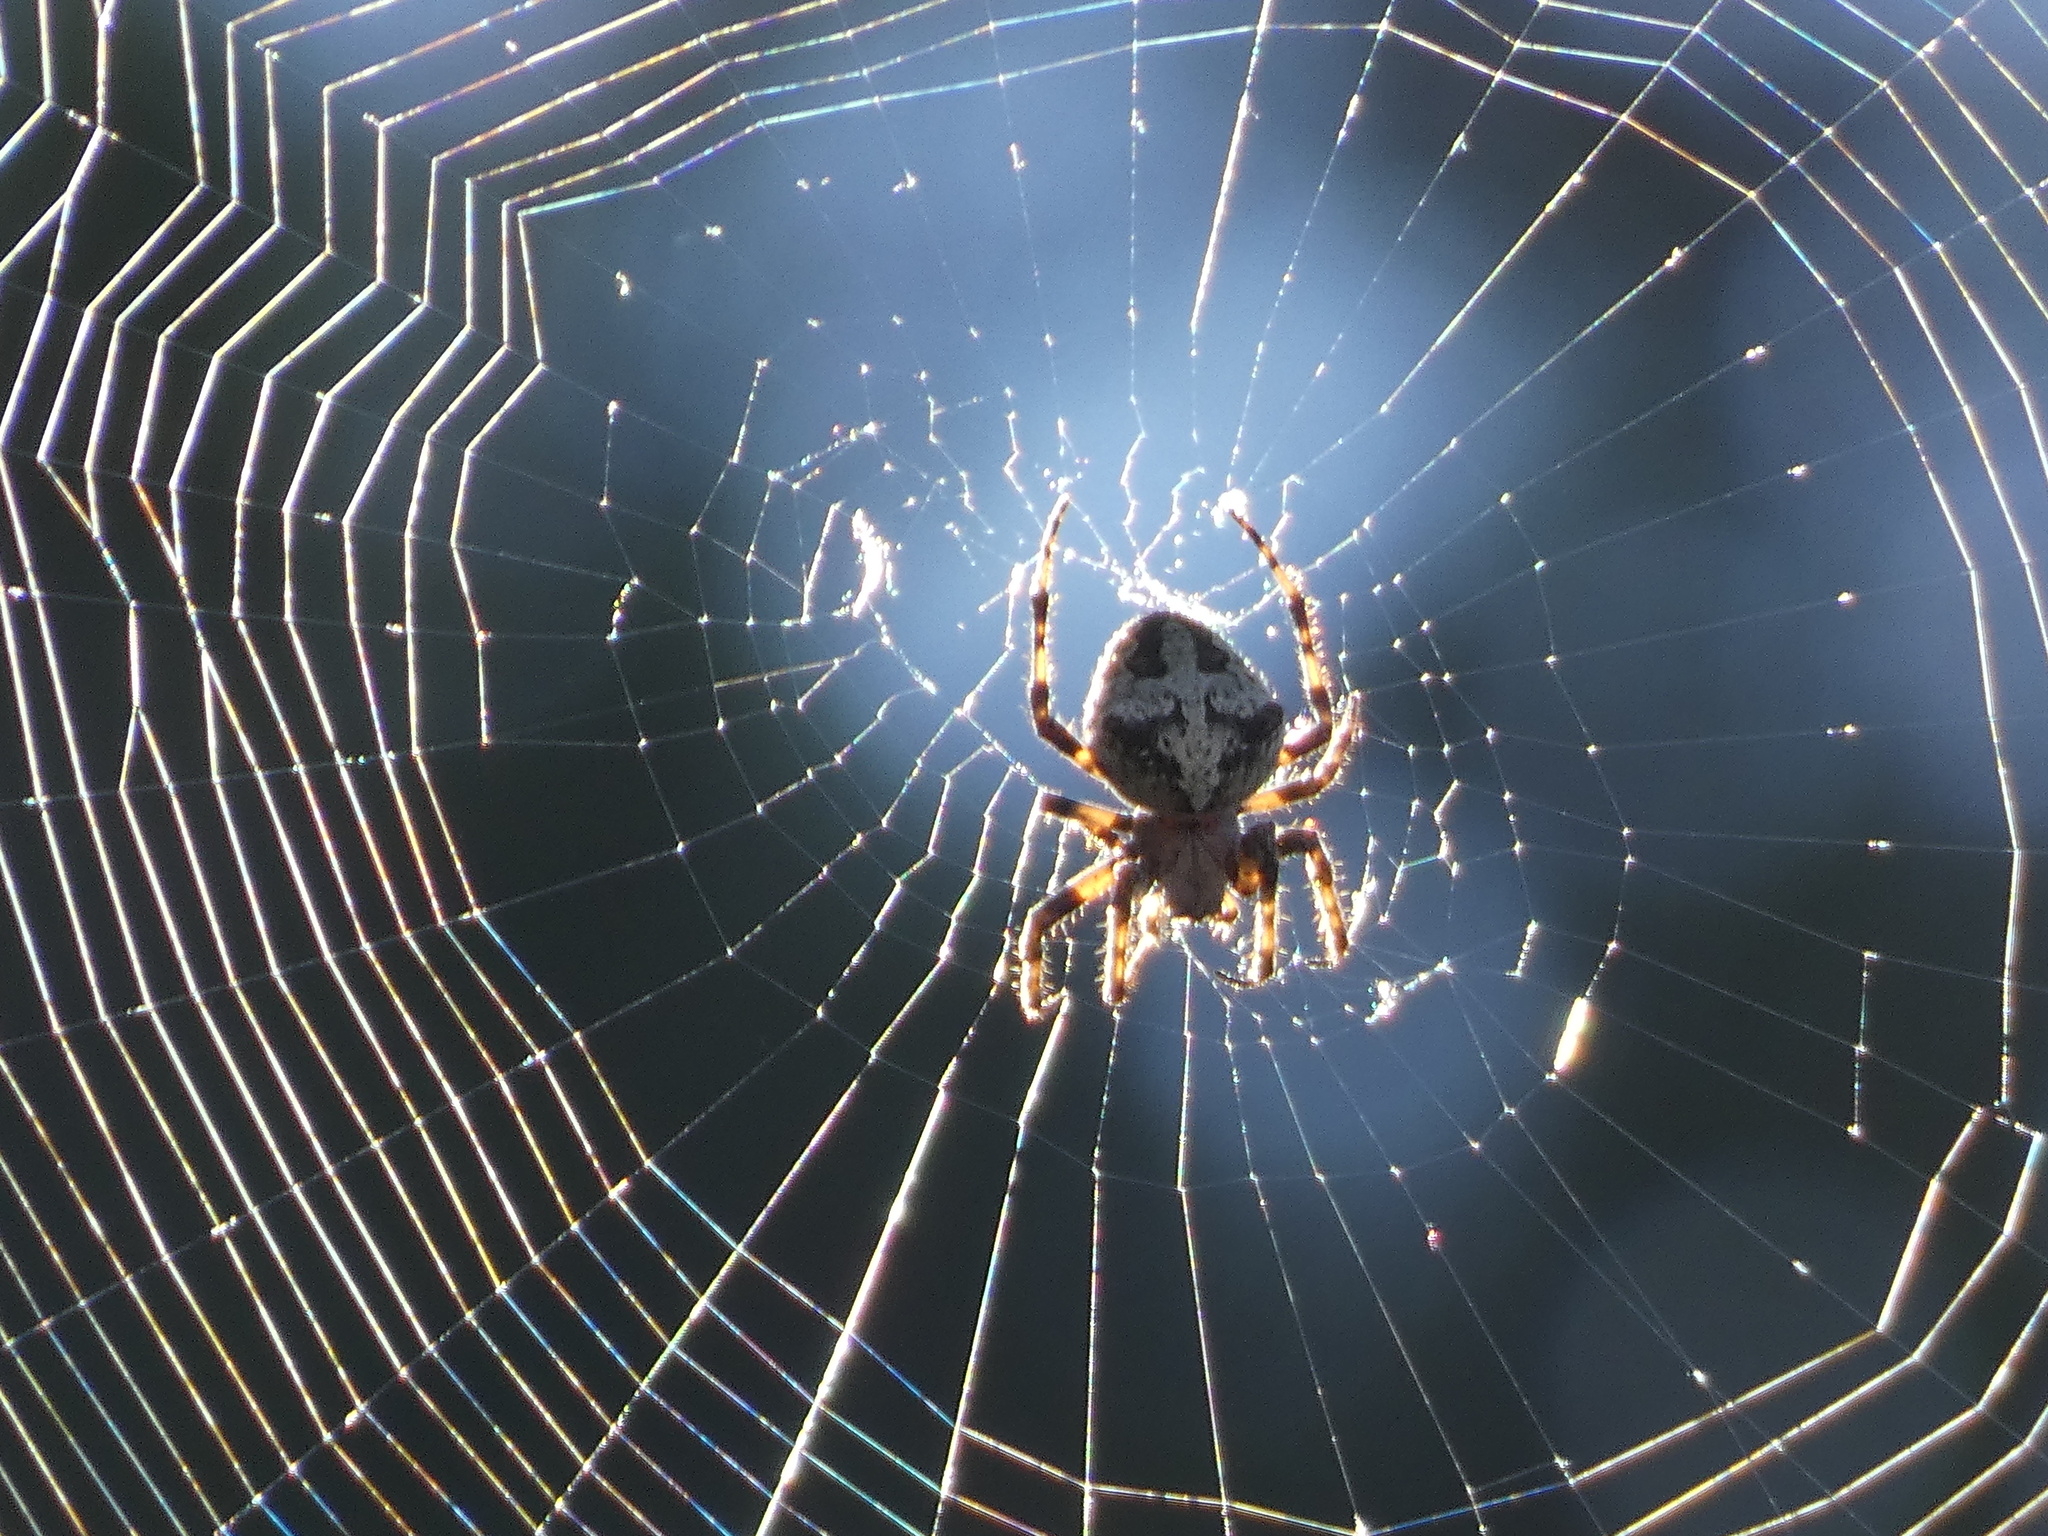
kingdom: Animalia
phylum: Arthropoda
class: Arachnida
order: Araneae
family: Araneidae
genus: Araneus
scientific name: Araneus circe
